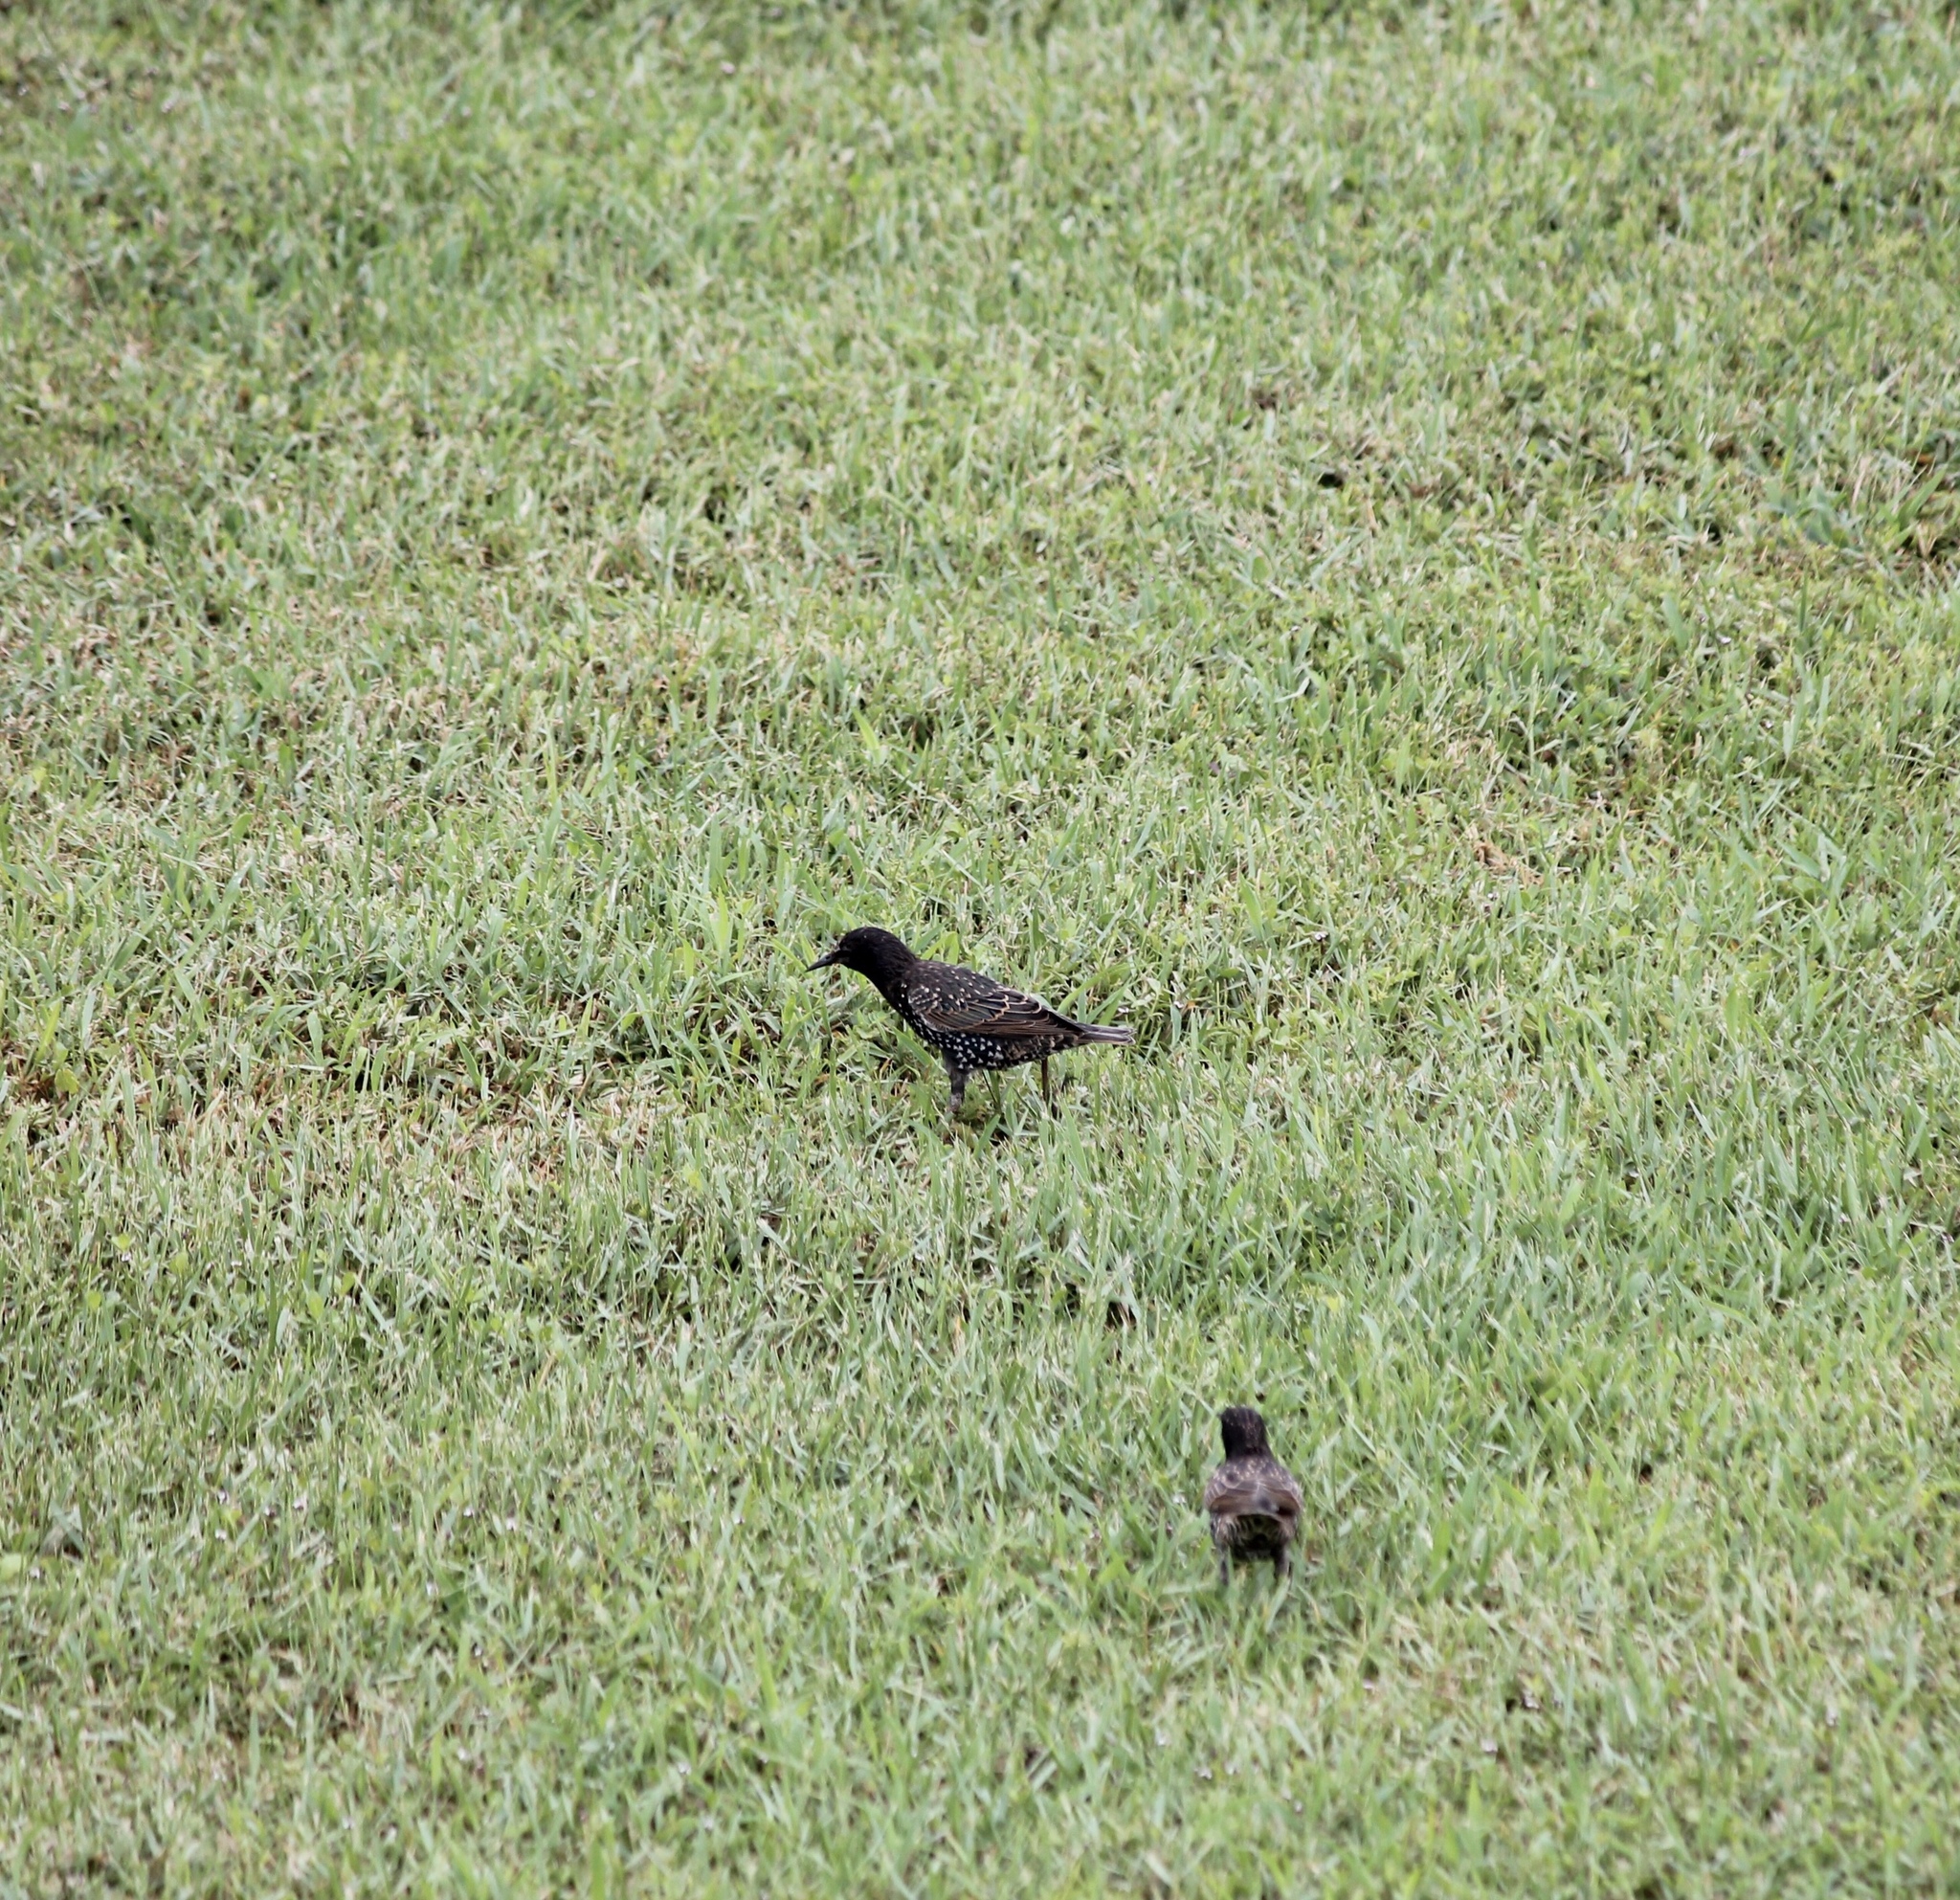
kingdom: Animalia
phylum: Chordata
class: Aves
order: Passeriformes
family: Sturnidae
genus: Sturnus
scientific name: Sturnus vulgaris
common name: Common starling
